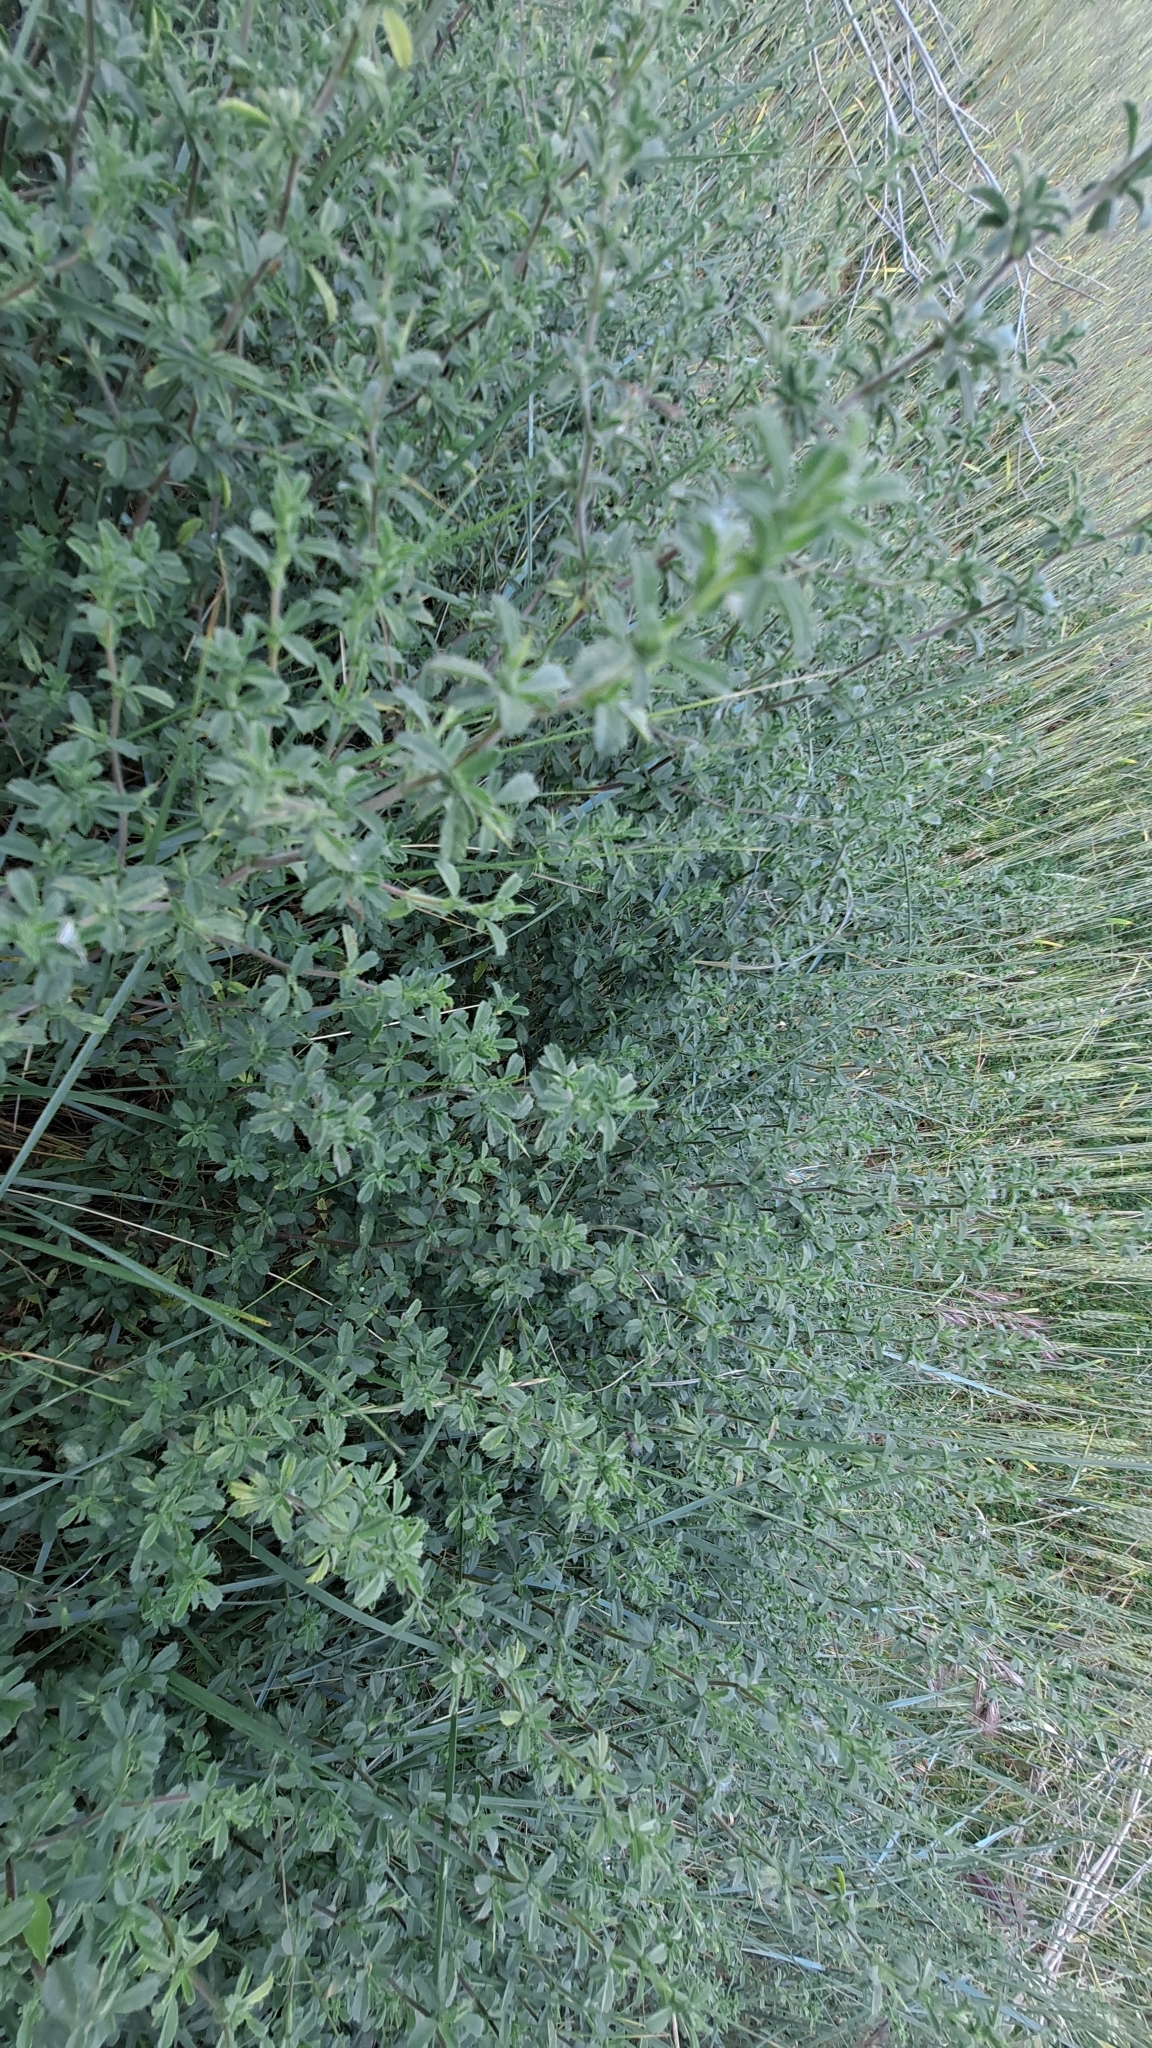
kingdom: Plantae
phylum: Tracheophyta
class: Magnoliopsida
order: Fabales
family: Fabaceae
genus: Ononis
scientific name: Ononis spinosa
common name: Spiny restharrow
